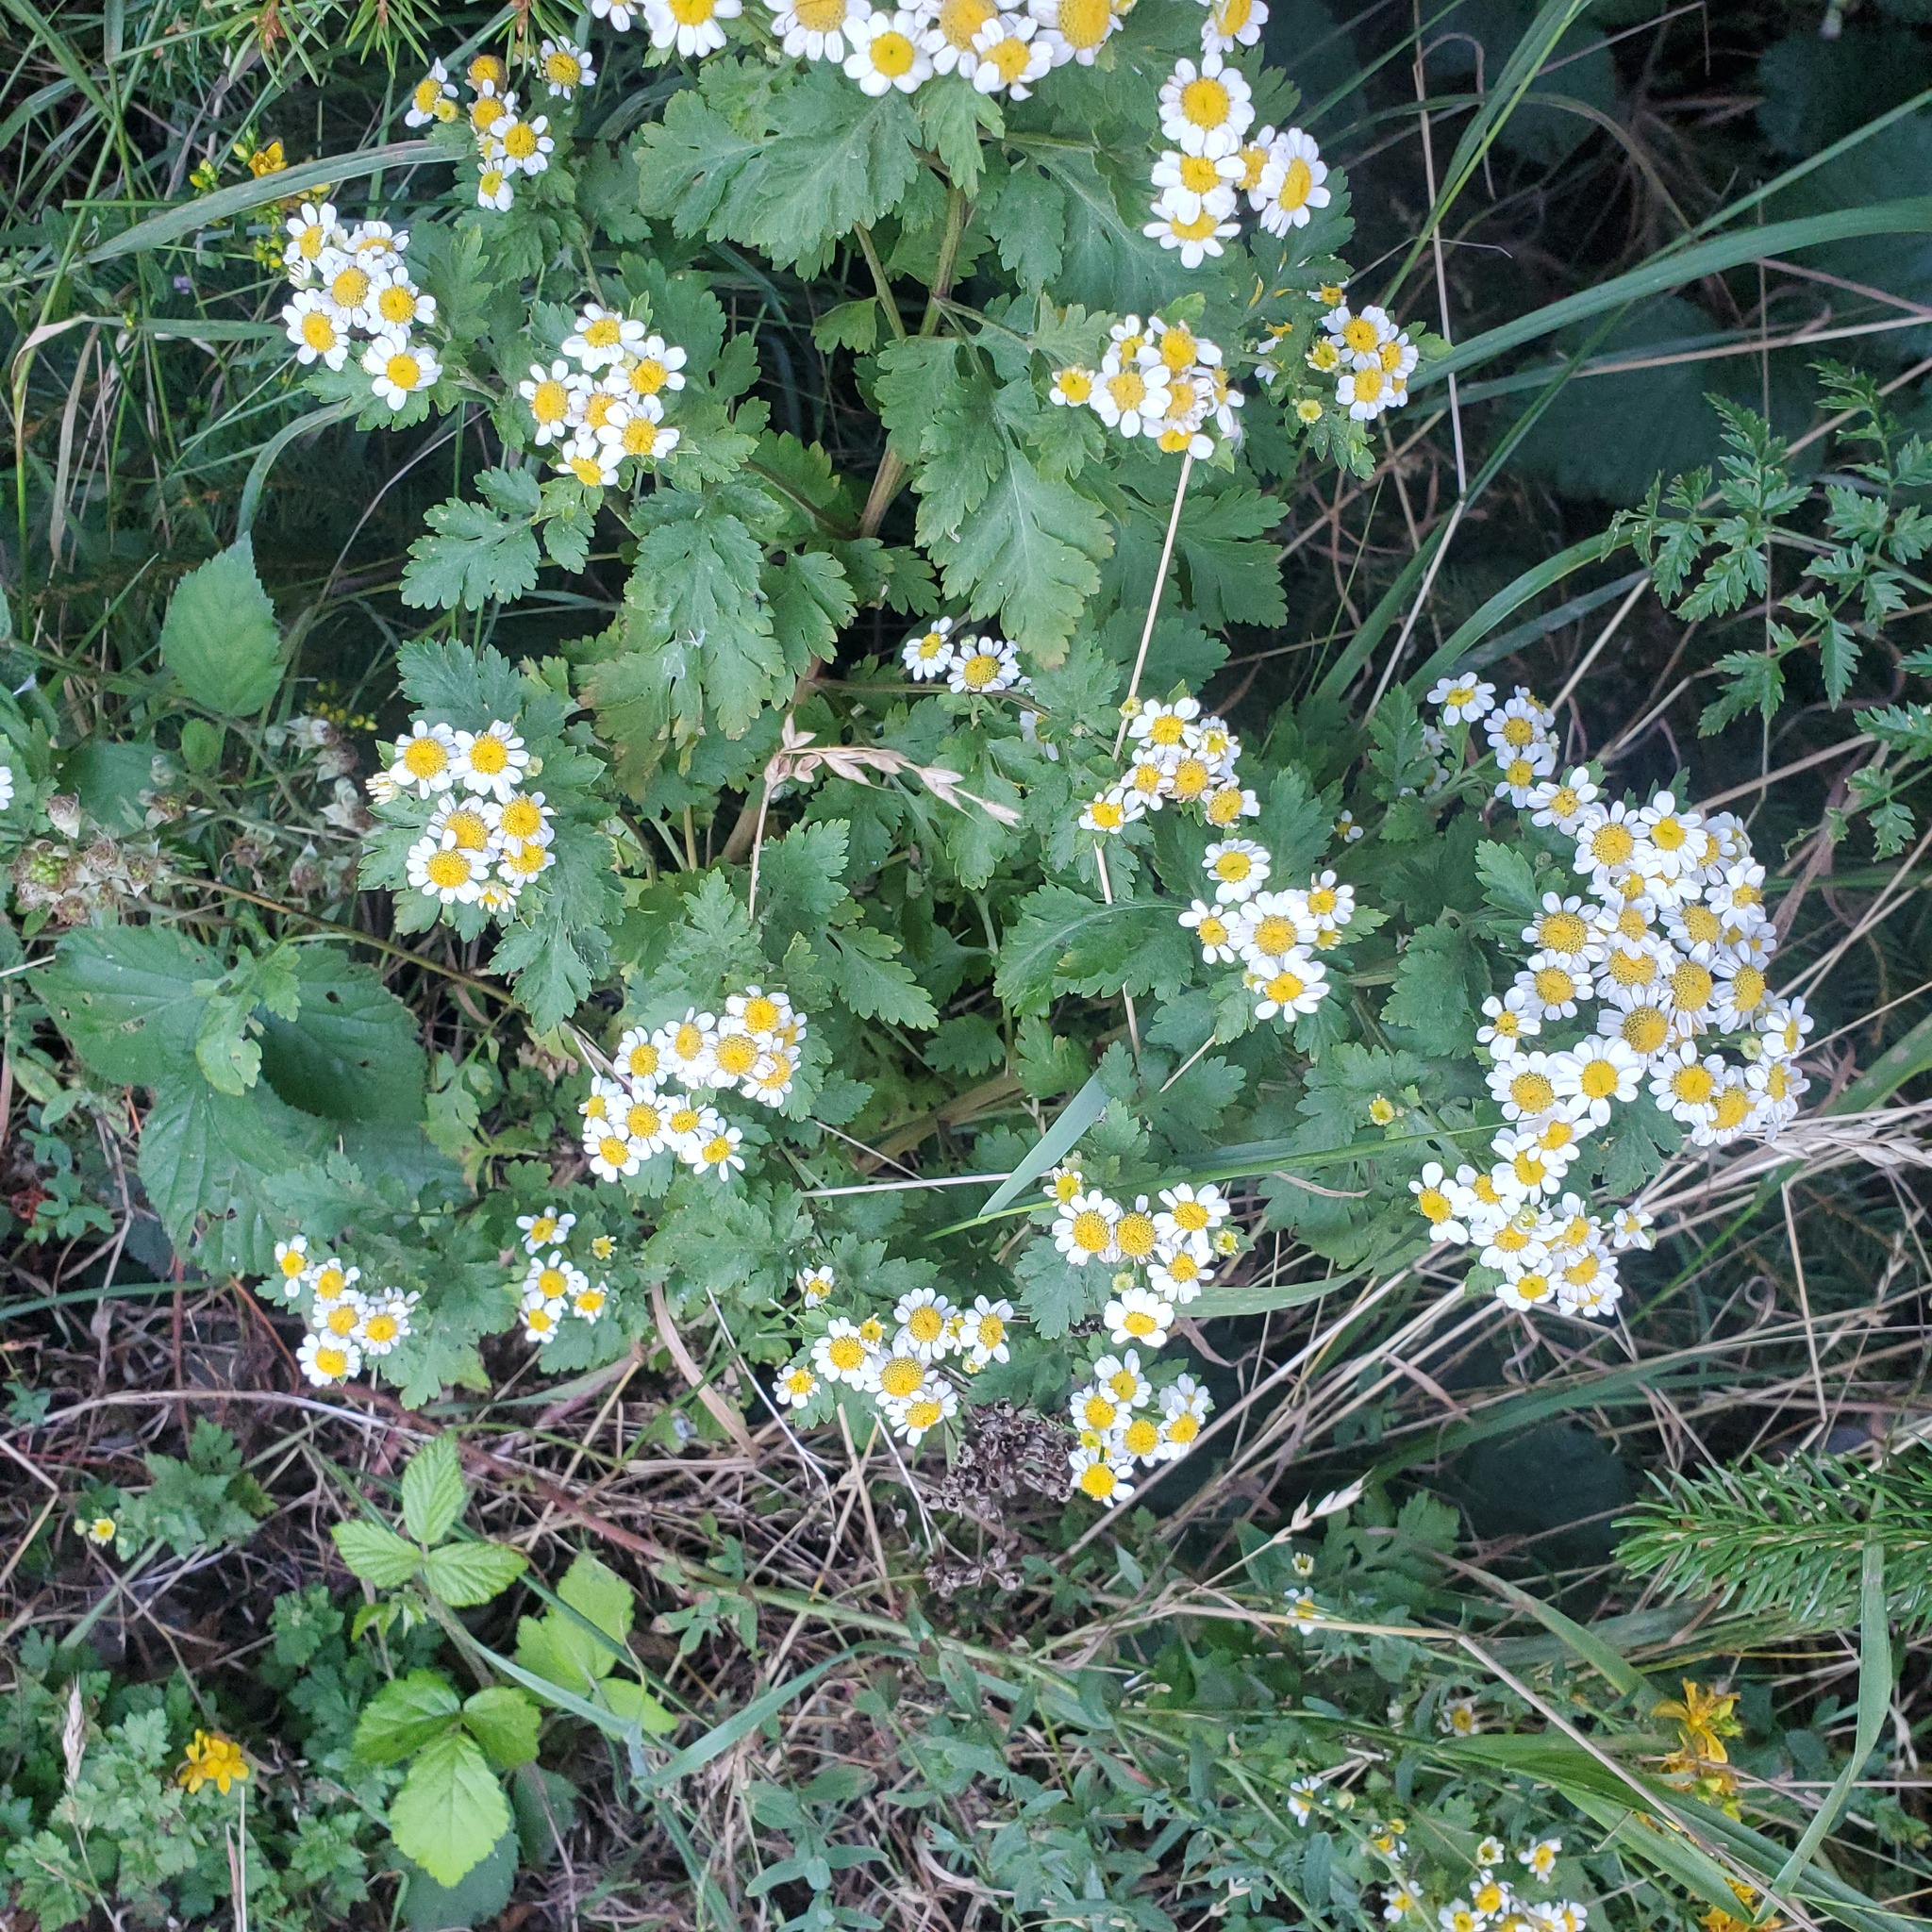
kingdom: Plantae
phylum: Tracheophyta
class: Magnoliopsida
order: Asterales
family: Asteraceae
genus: Tanacetum
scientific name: Tanacetum parthenium
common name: Feverfew
